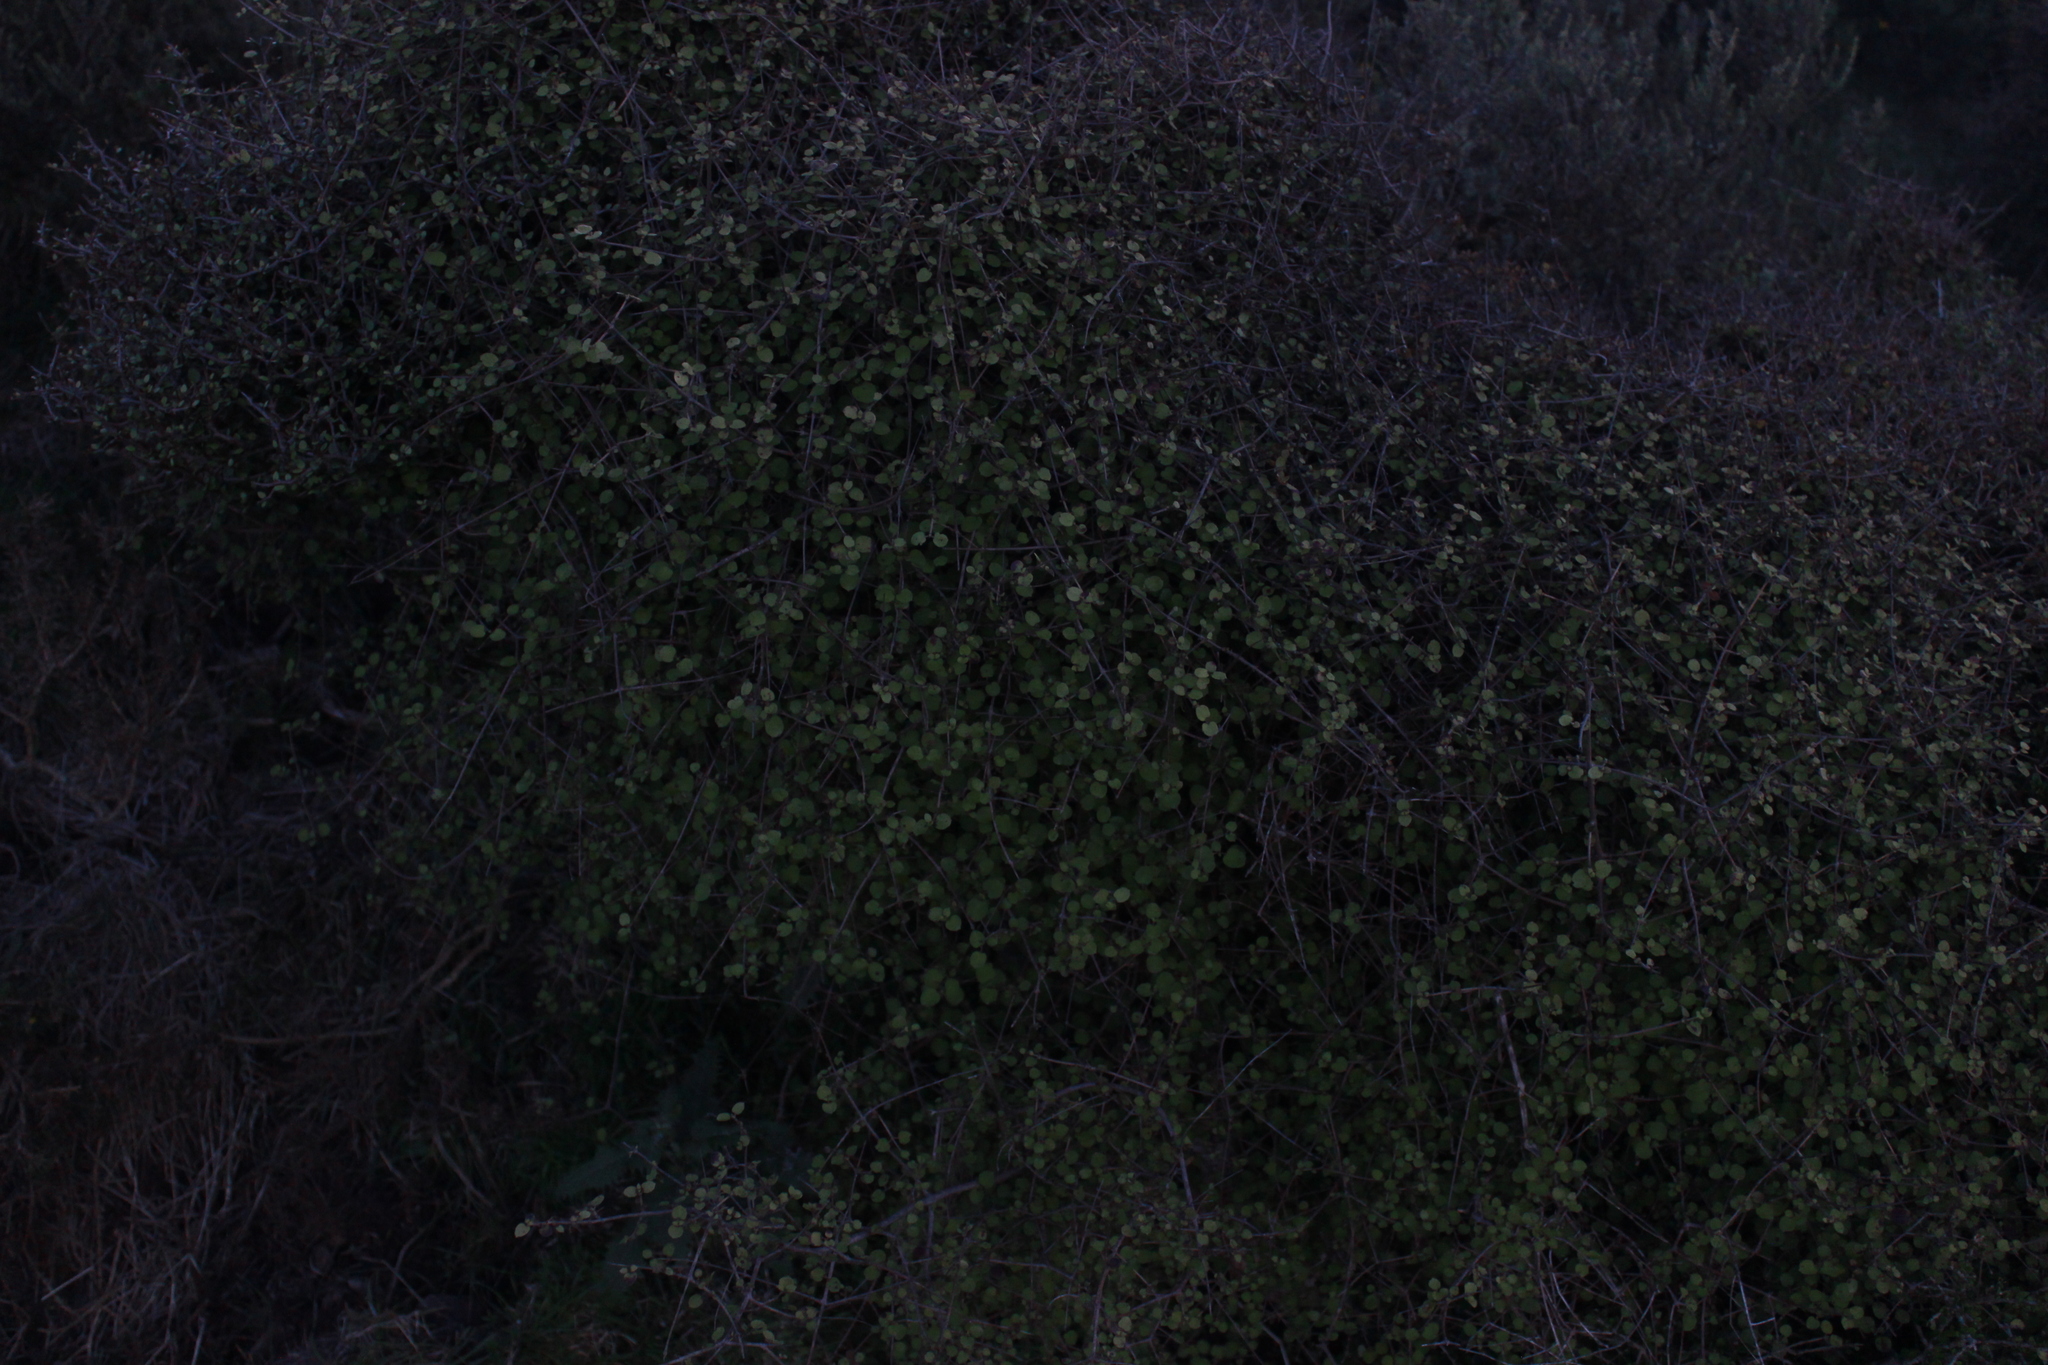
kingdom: Plantae
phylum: Tracheophyta
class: Magnoliopsida
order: Gentianales
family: Rubiaceae
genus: Coprosma
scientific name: Coprosma rotundifolia
